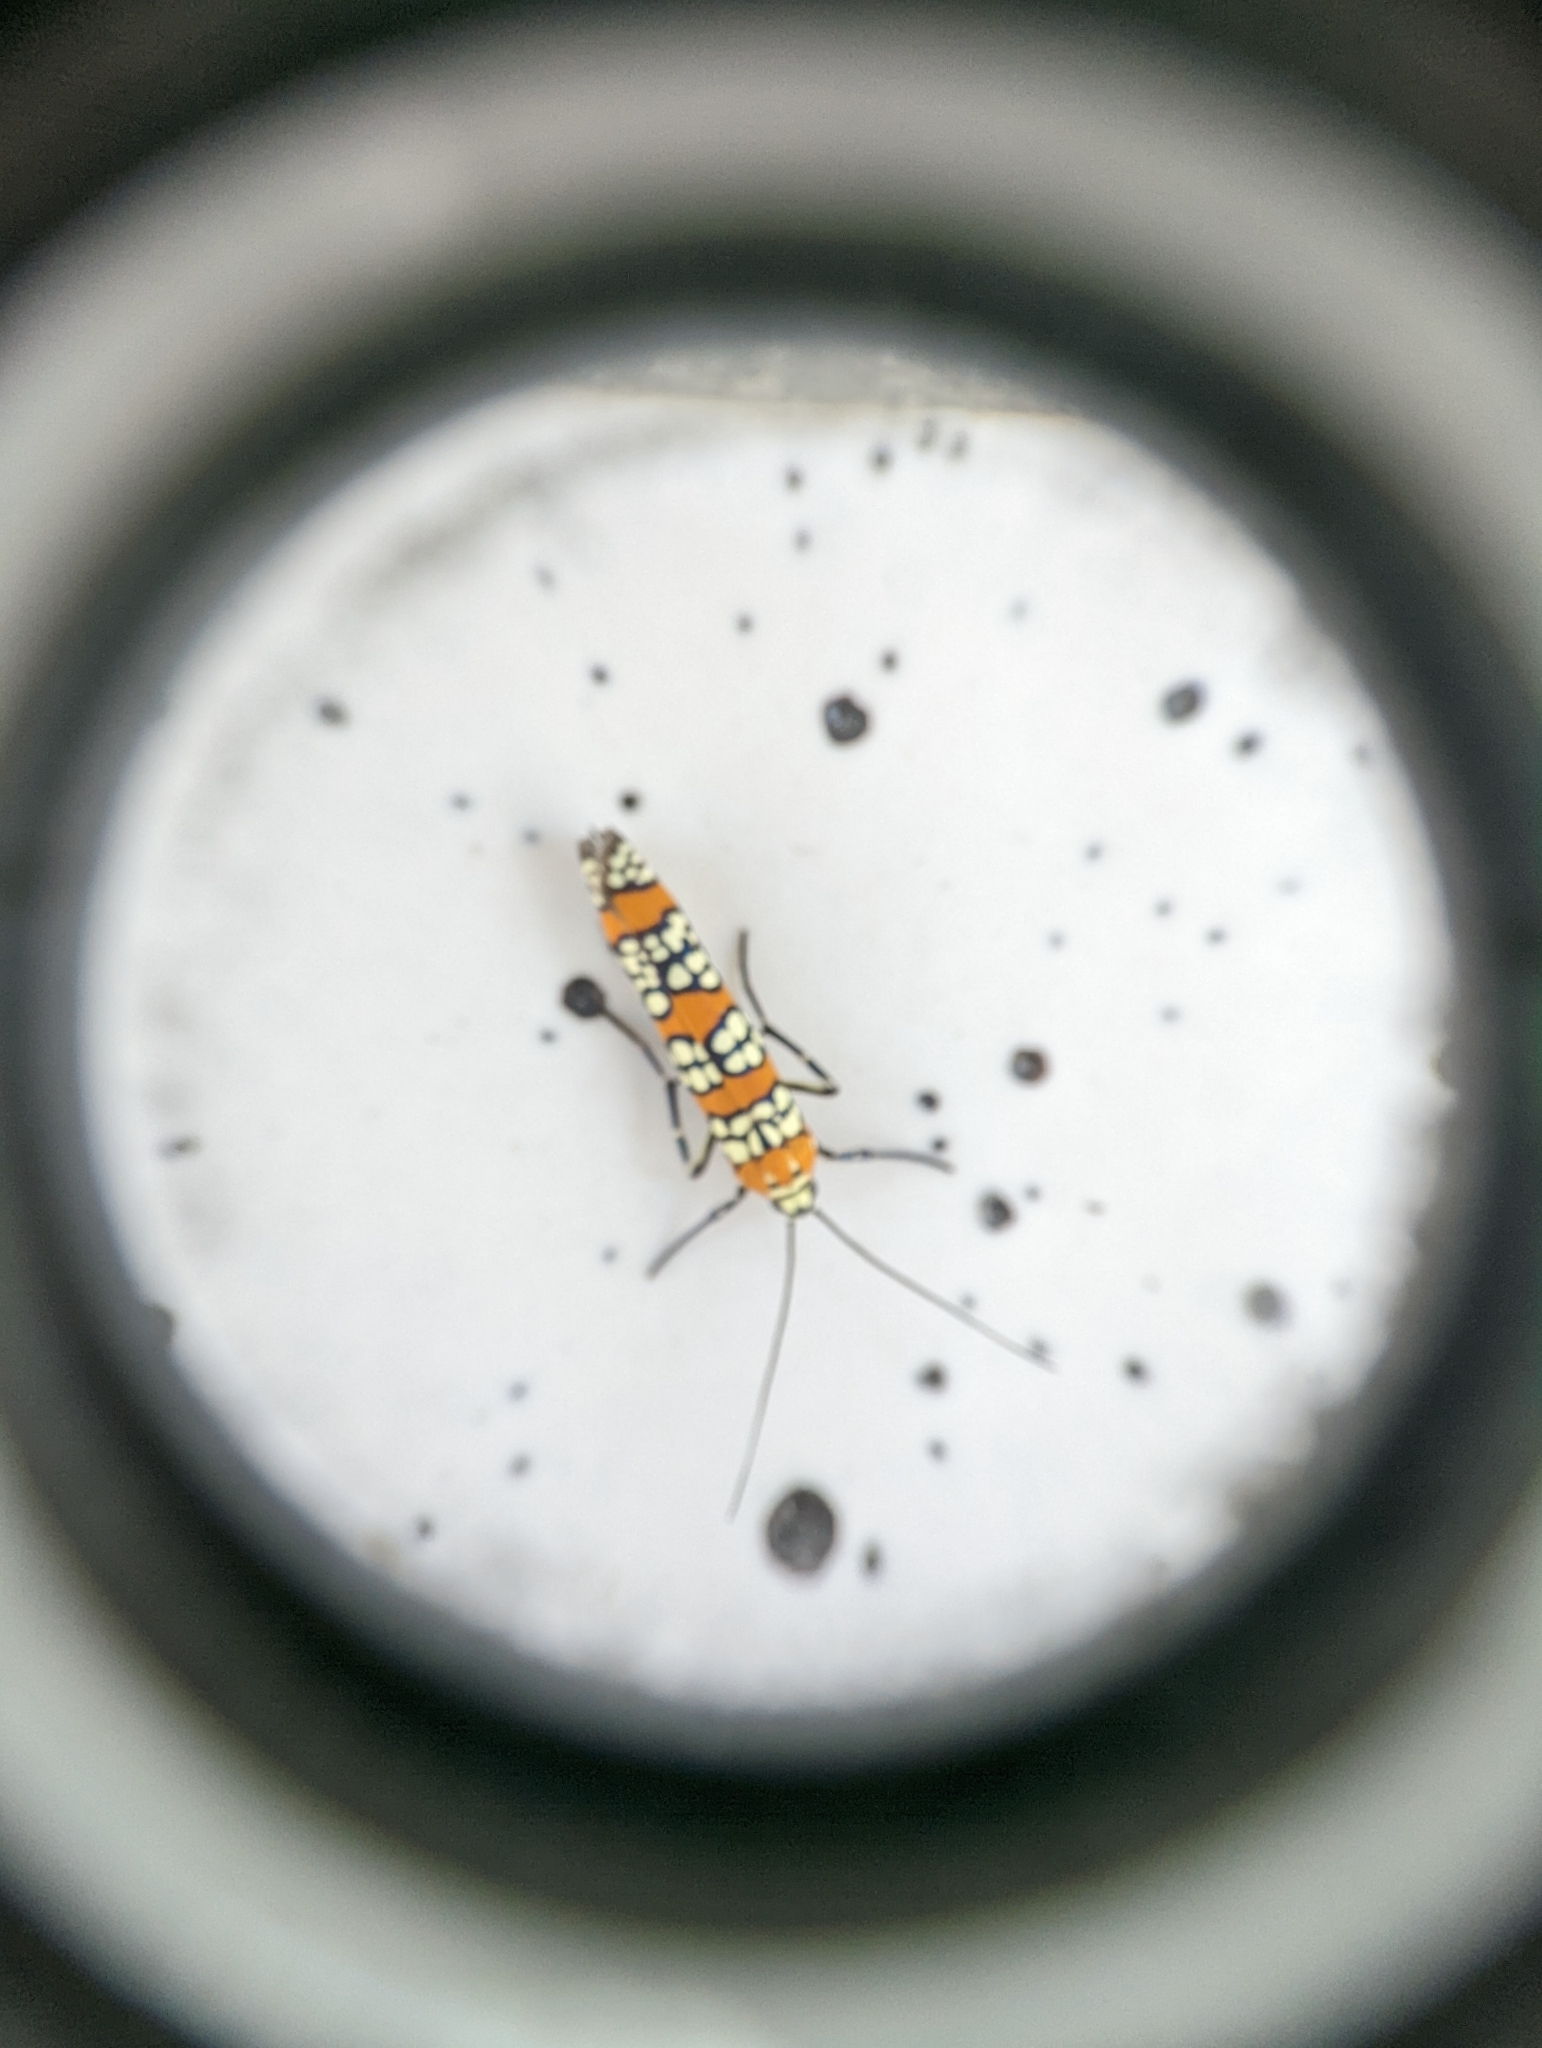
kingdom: Animalia
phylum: Arthropoda
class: Insecta
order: Lepidoptera
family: Attevidae
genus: Atteva
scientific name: Atteva punctella
